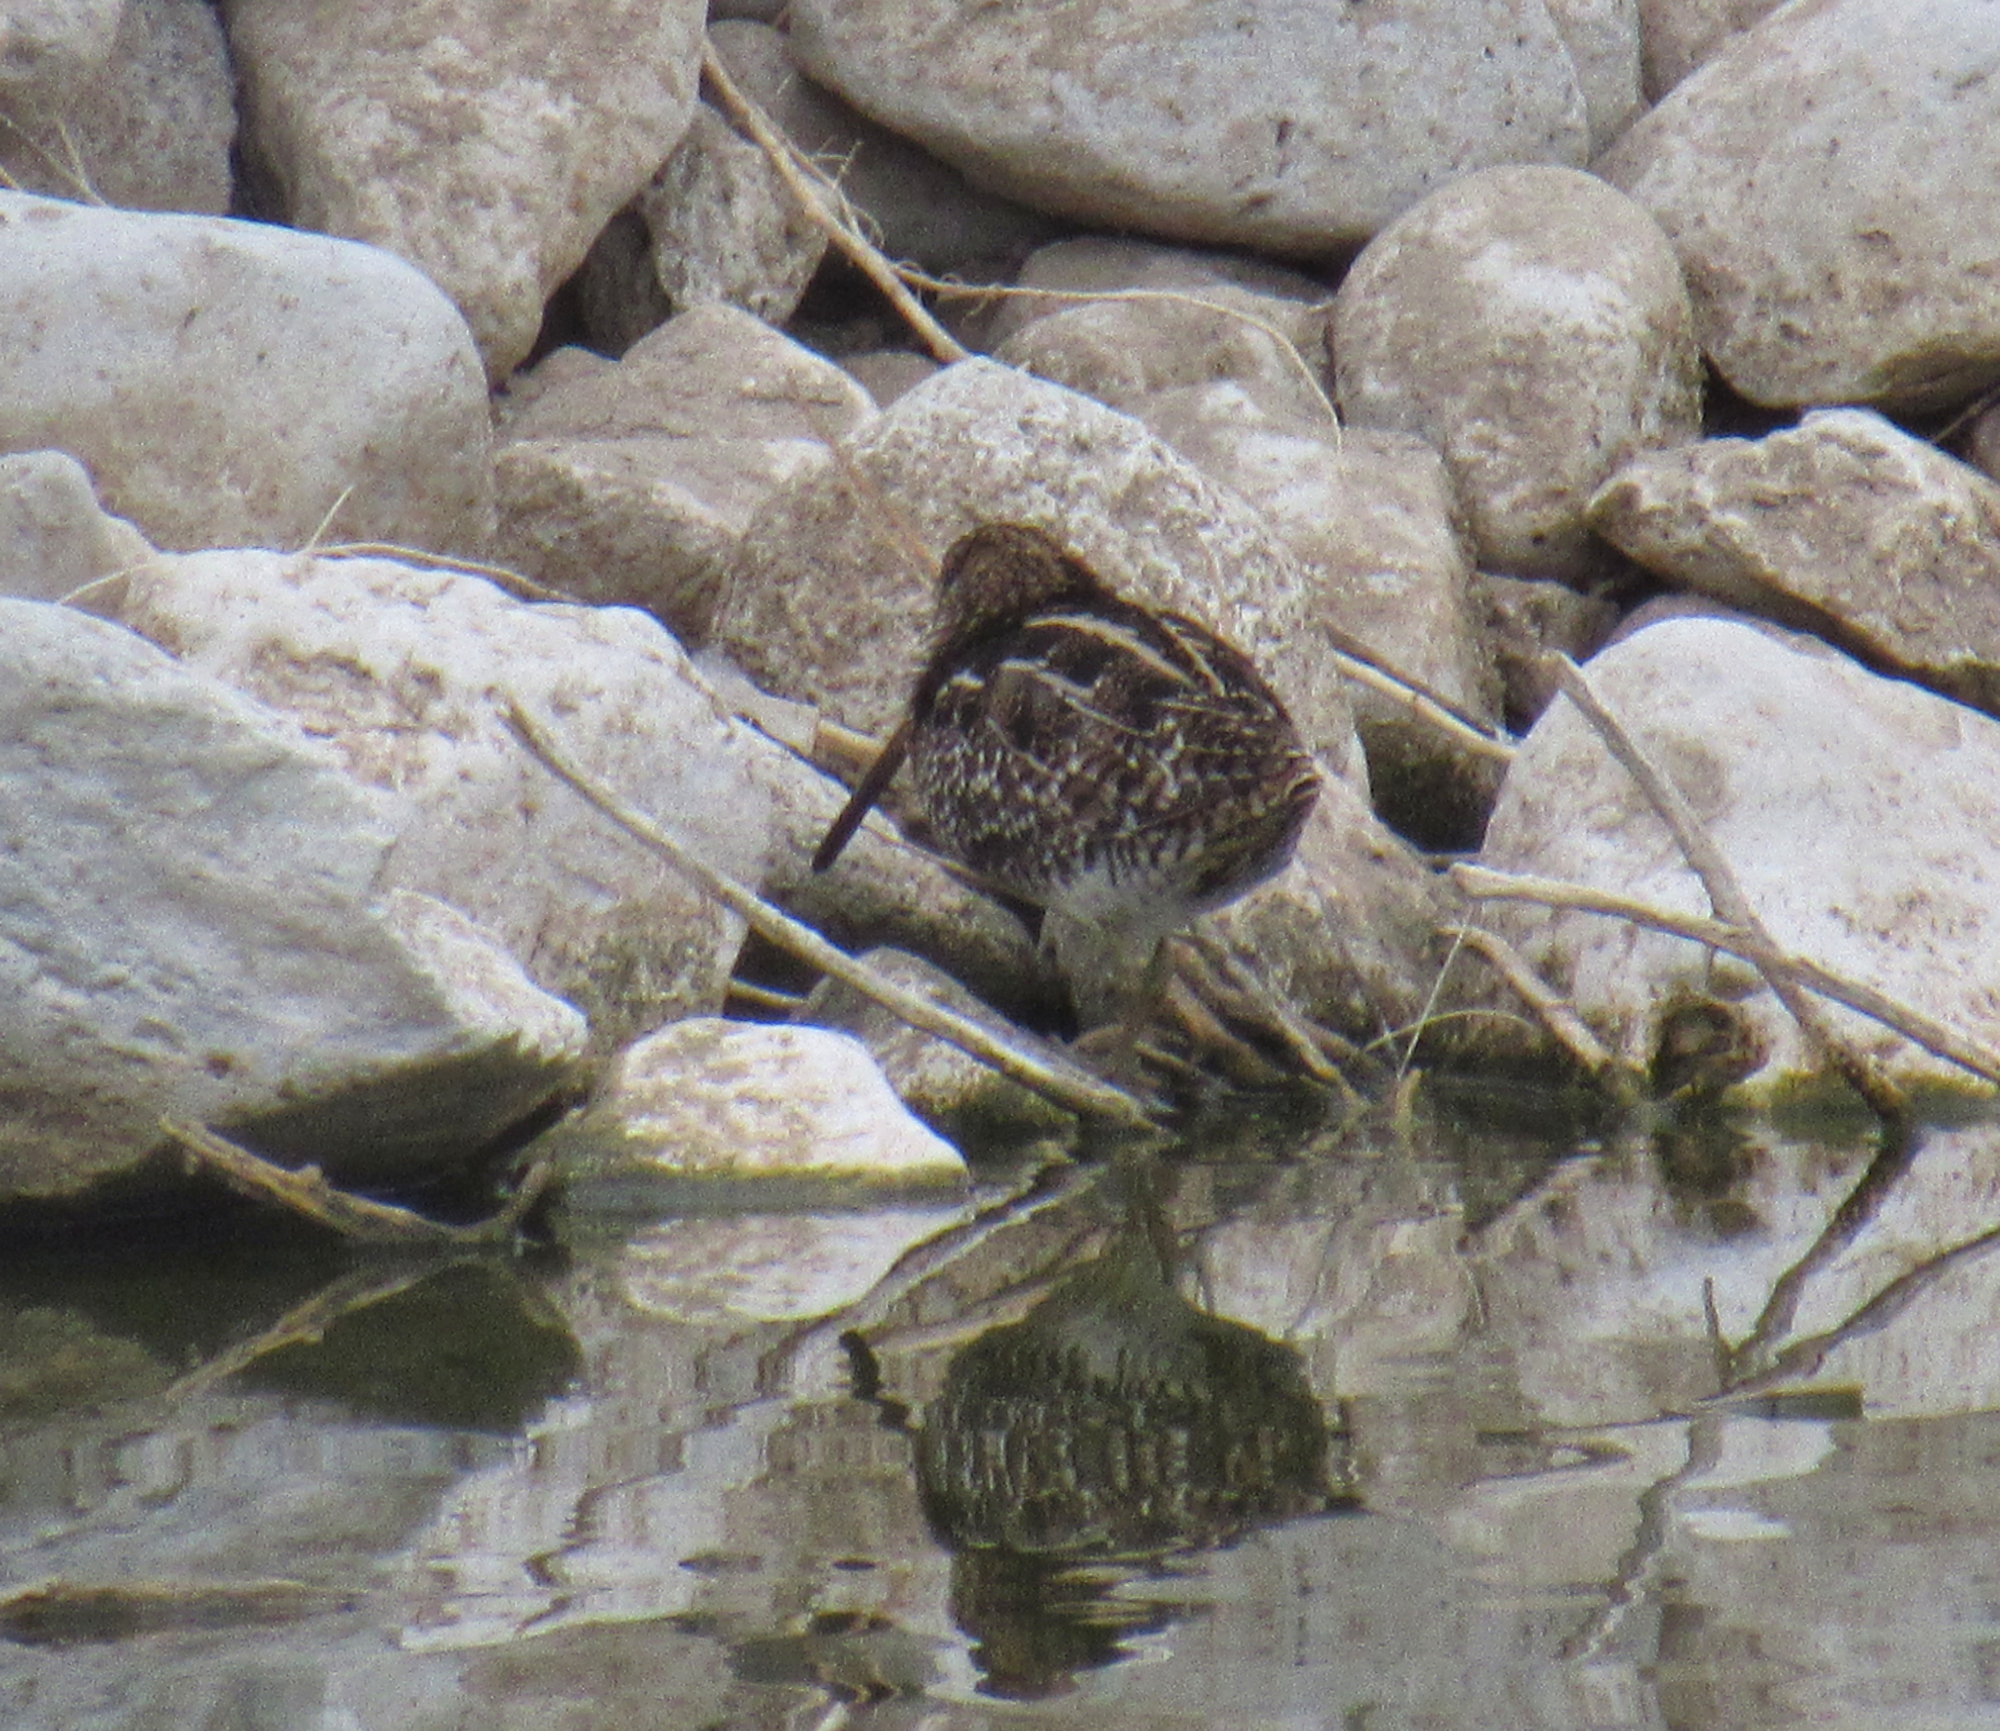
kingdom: Animalia
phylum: Chordata
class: Aves
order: Charadriiformes
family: Scolopacidae
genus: Gallinago
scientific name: Gallinago delicata
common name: Wilson's snipe
